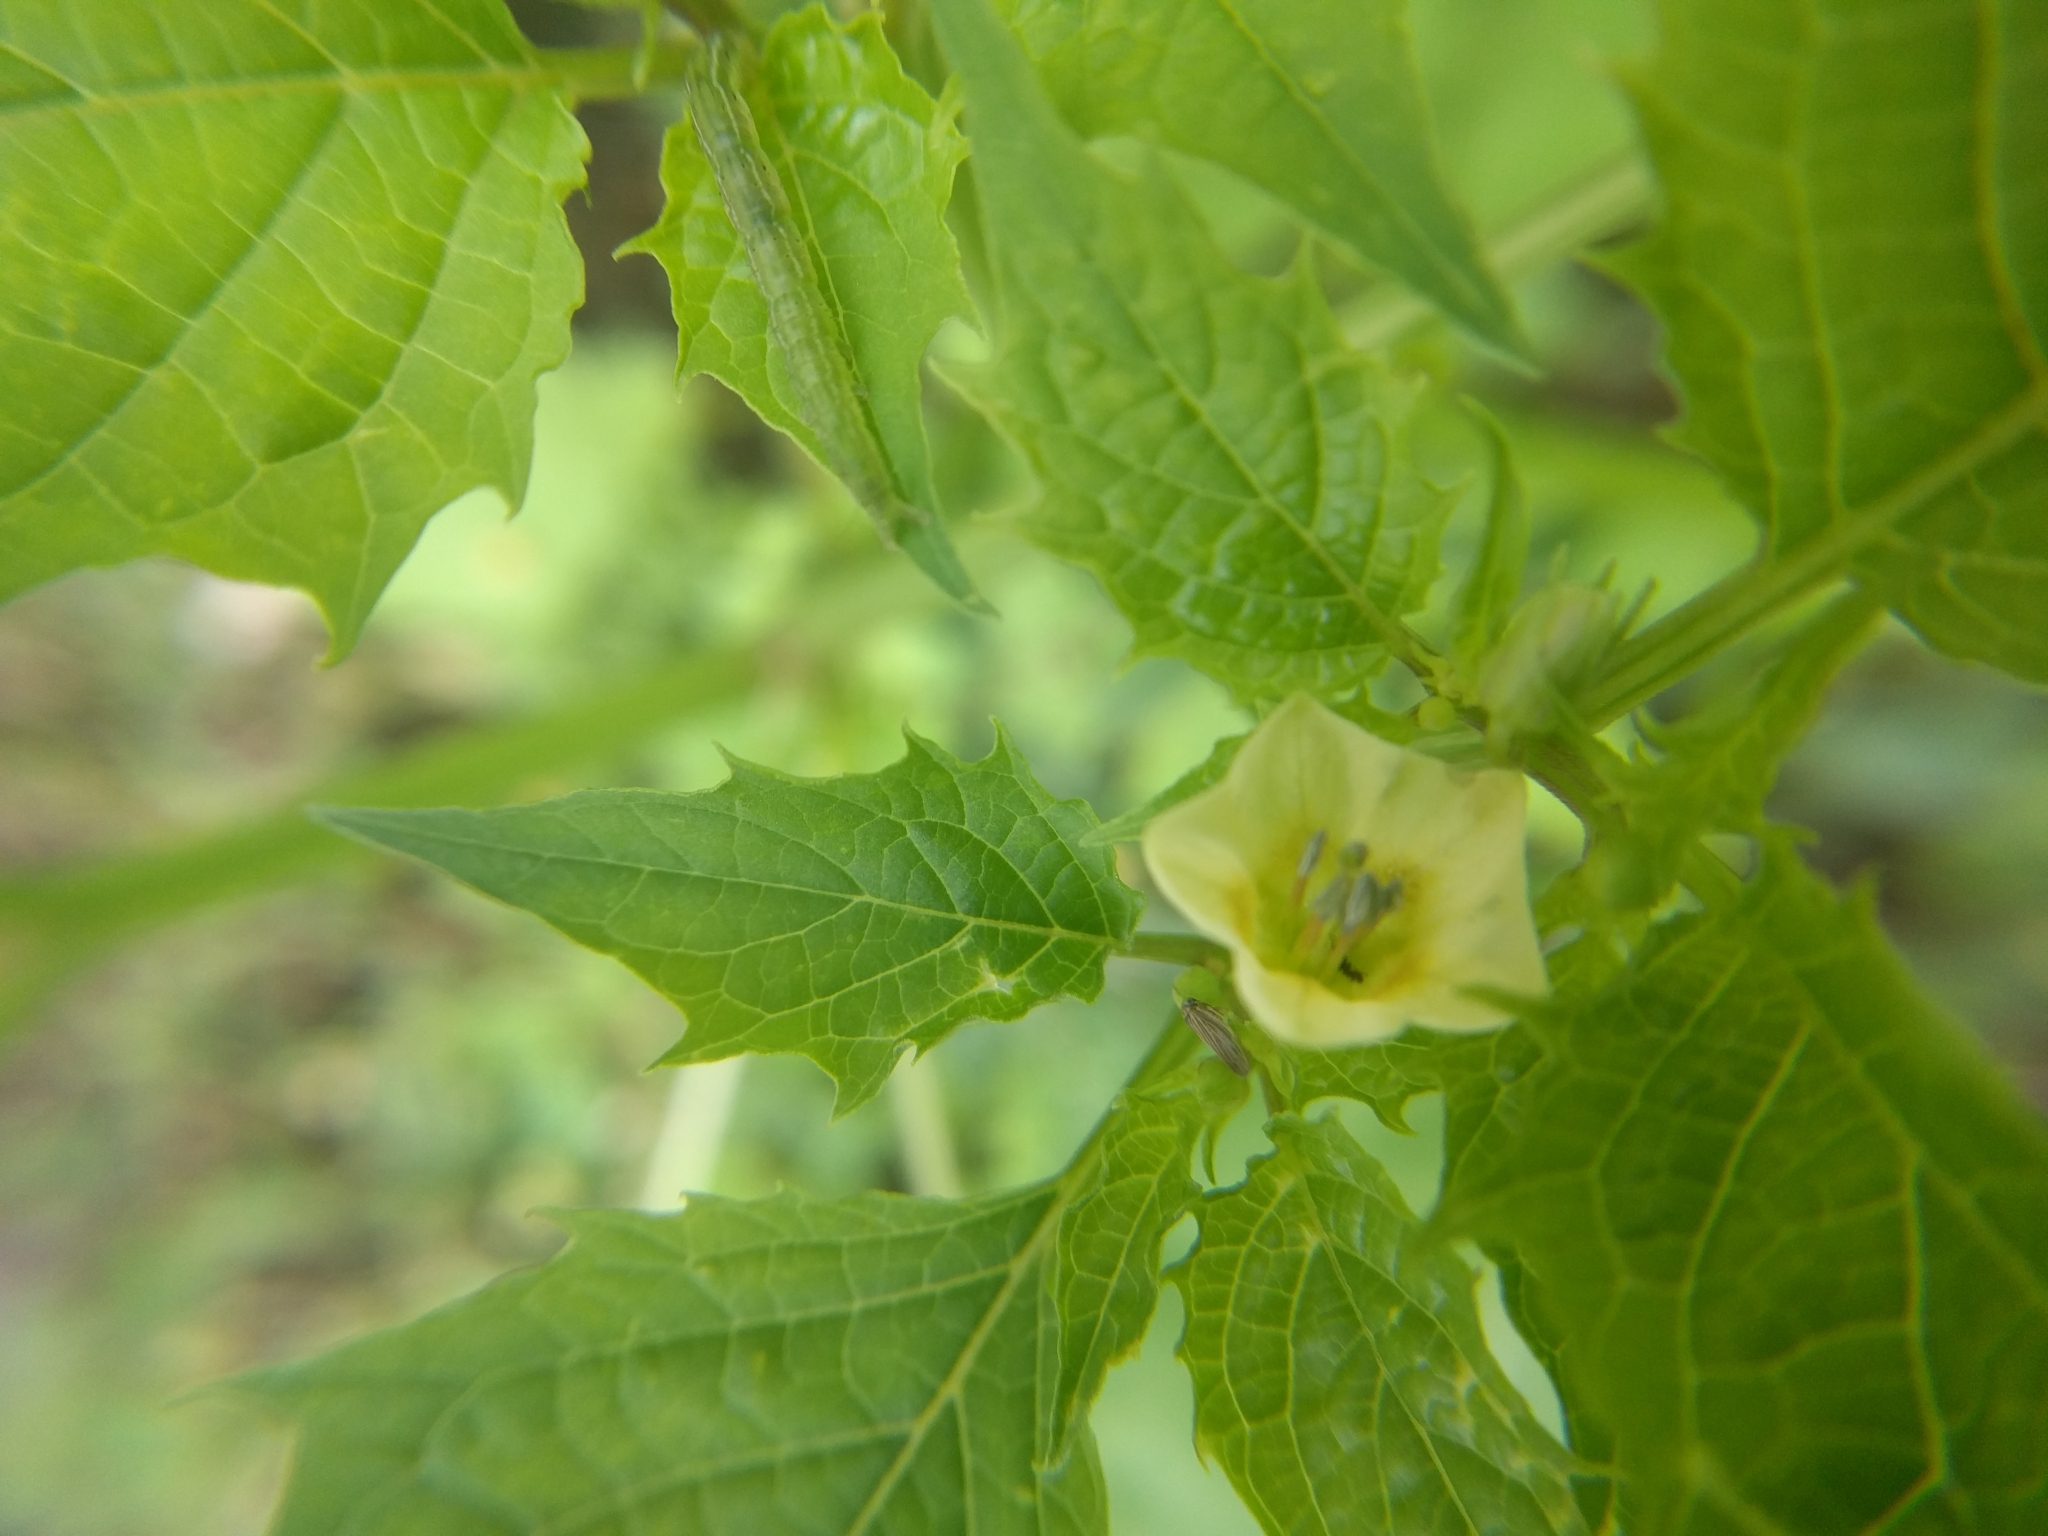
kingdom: Plantae
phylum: Tracheophyta
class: Magnoliopsida
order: Solanales
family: Solanaceae
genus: Physalis
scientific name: Physalis angulata
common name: Angular winter-cherry
